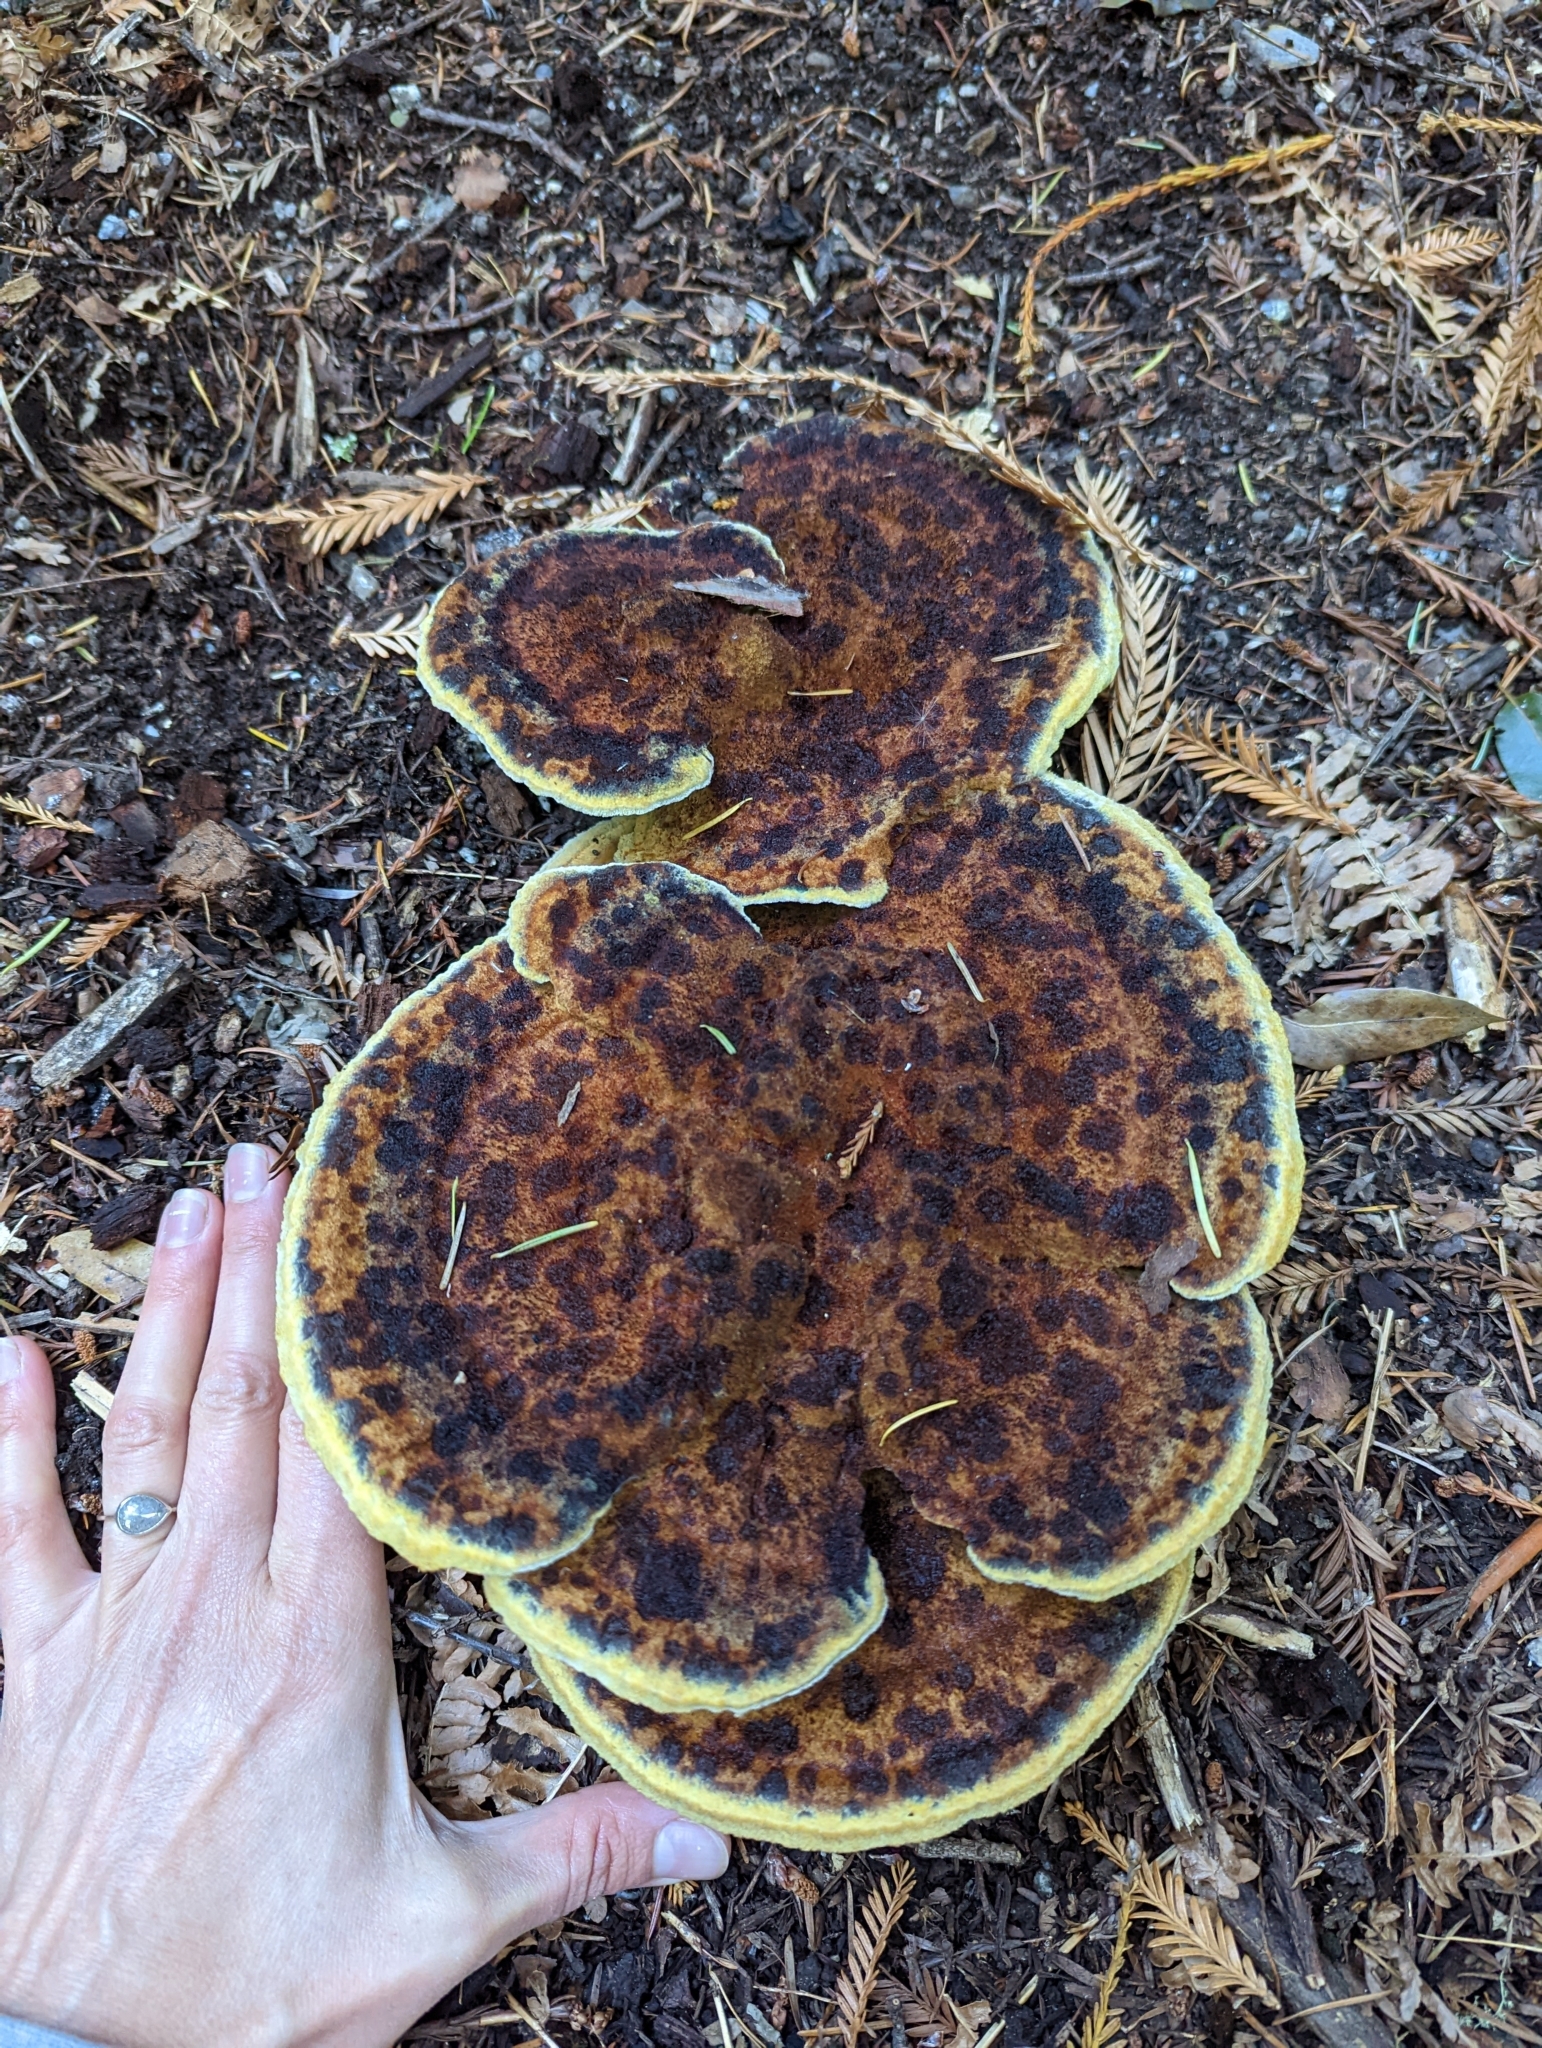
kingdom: Fungi
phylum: Basidiomycota
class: Agaricomycetes
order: Polyporales
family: Laetiporaceae
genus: Phaeolus
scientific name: Phaeolus schweinitzii
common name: Dyer's mazegill
